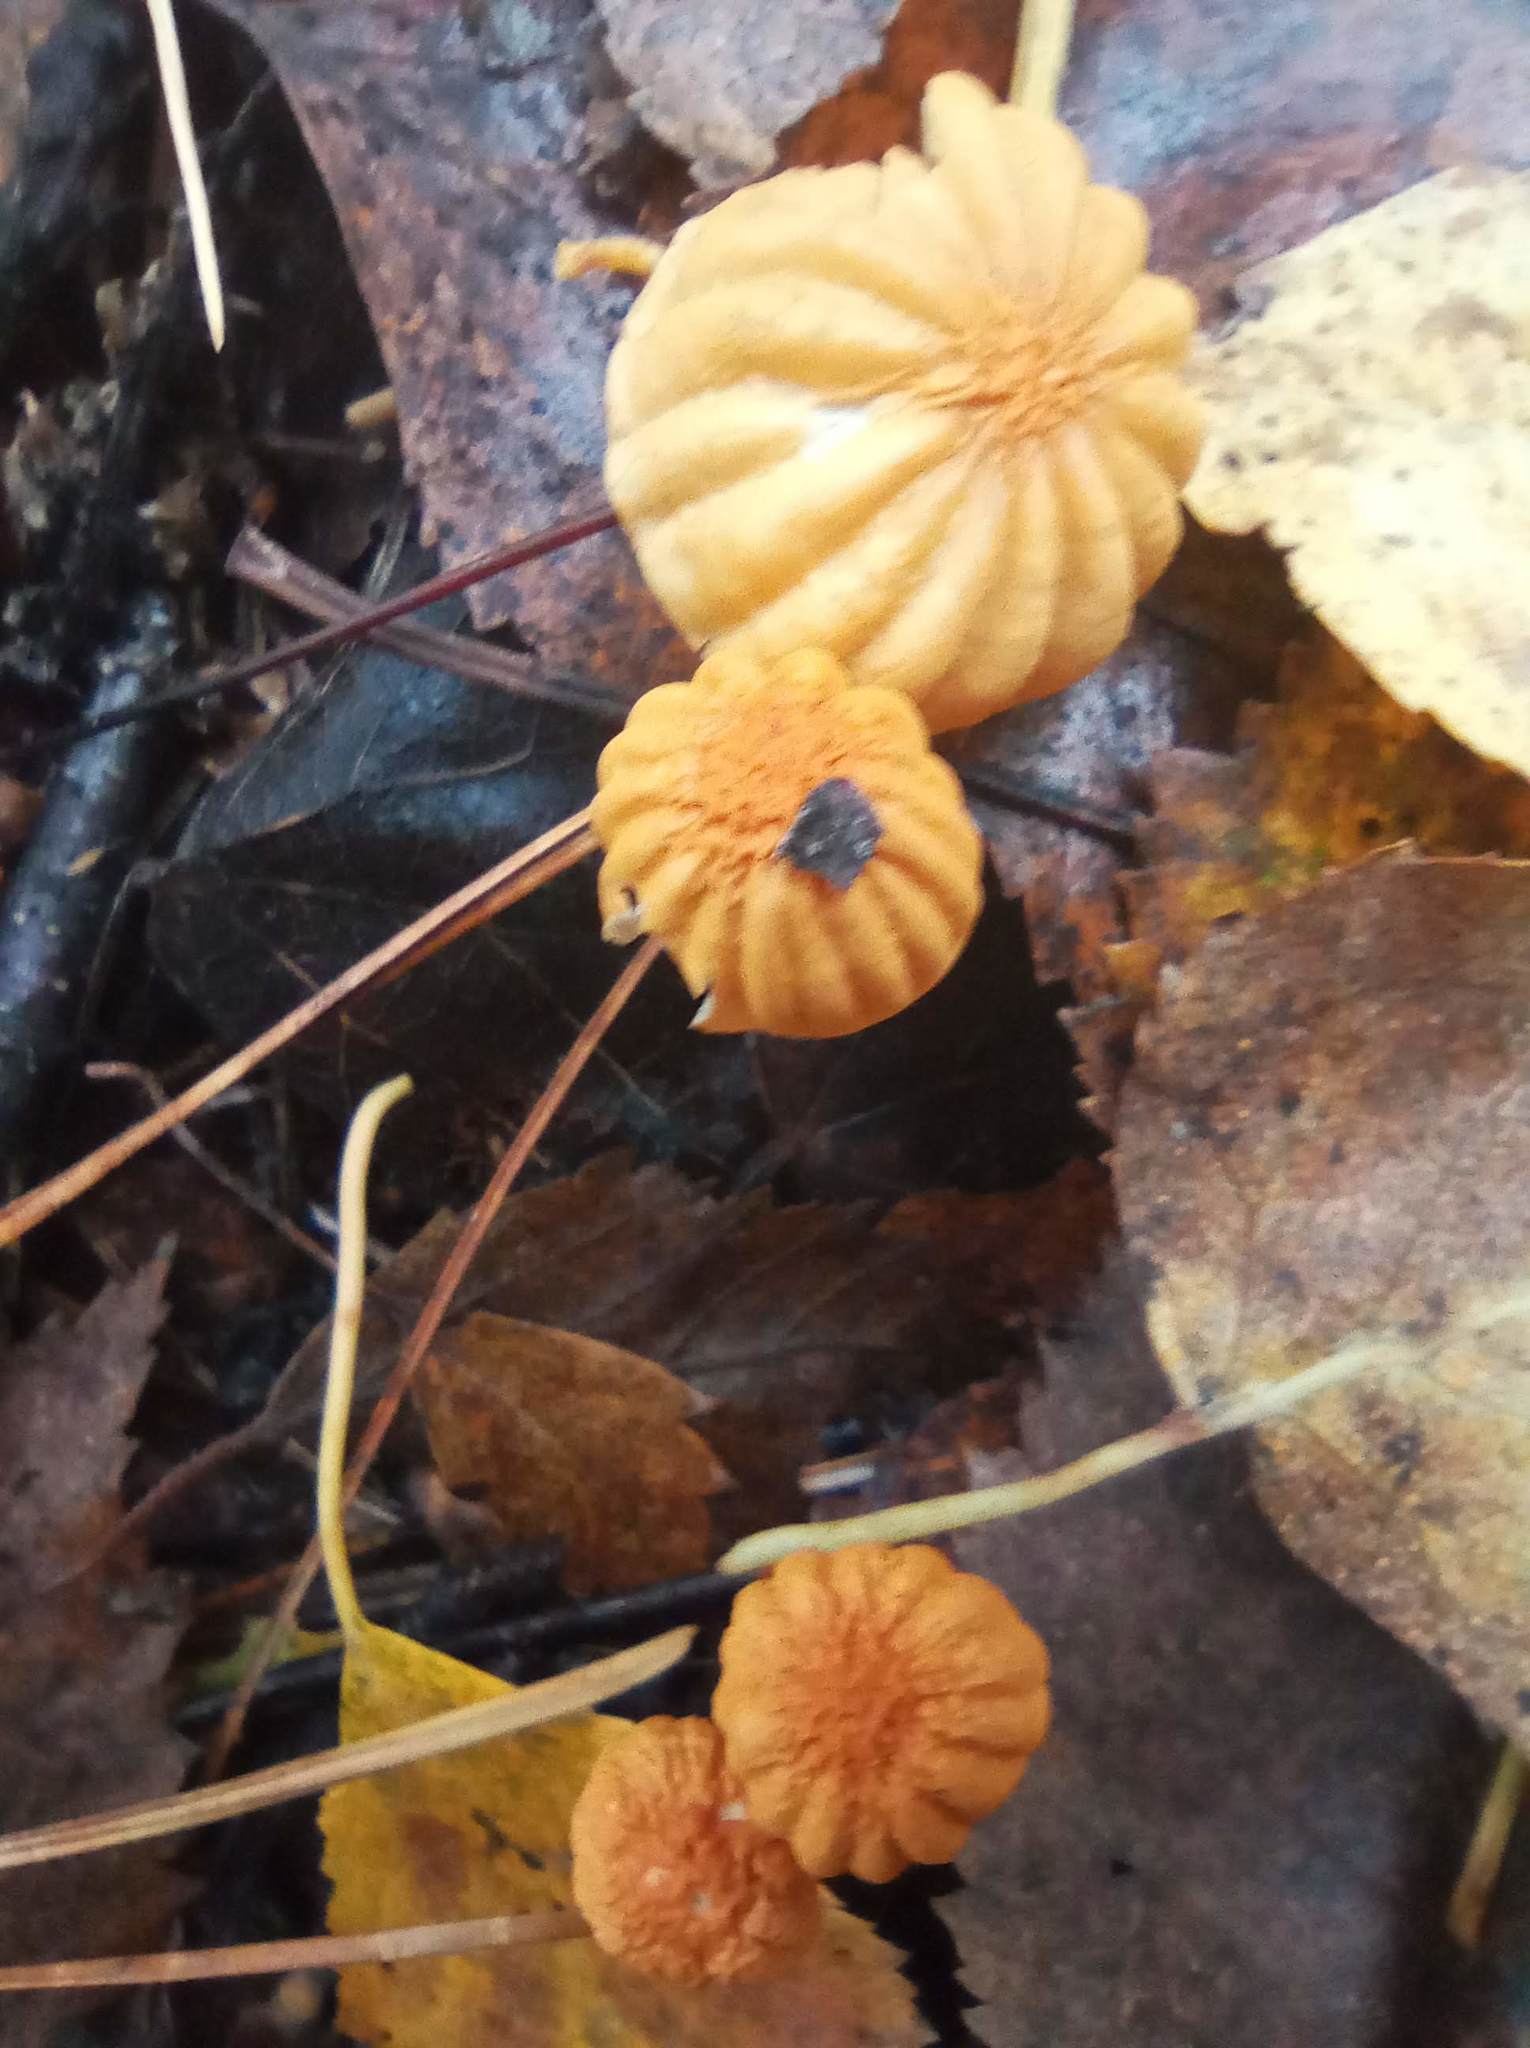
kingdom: Fungi
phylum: Basidiomycota
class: Agaricomycetes
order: Agaricales
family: Marasmiaceae
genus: Marasmius
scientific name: Marasmius siccus
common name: Orange pinwheel
